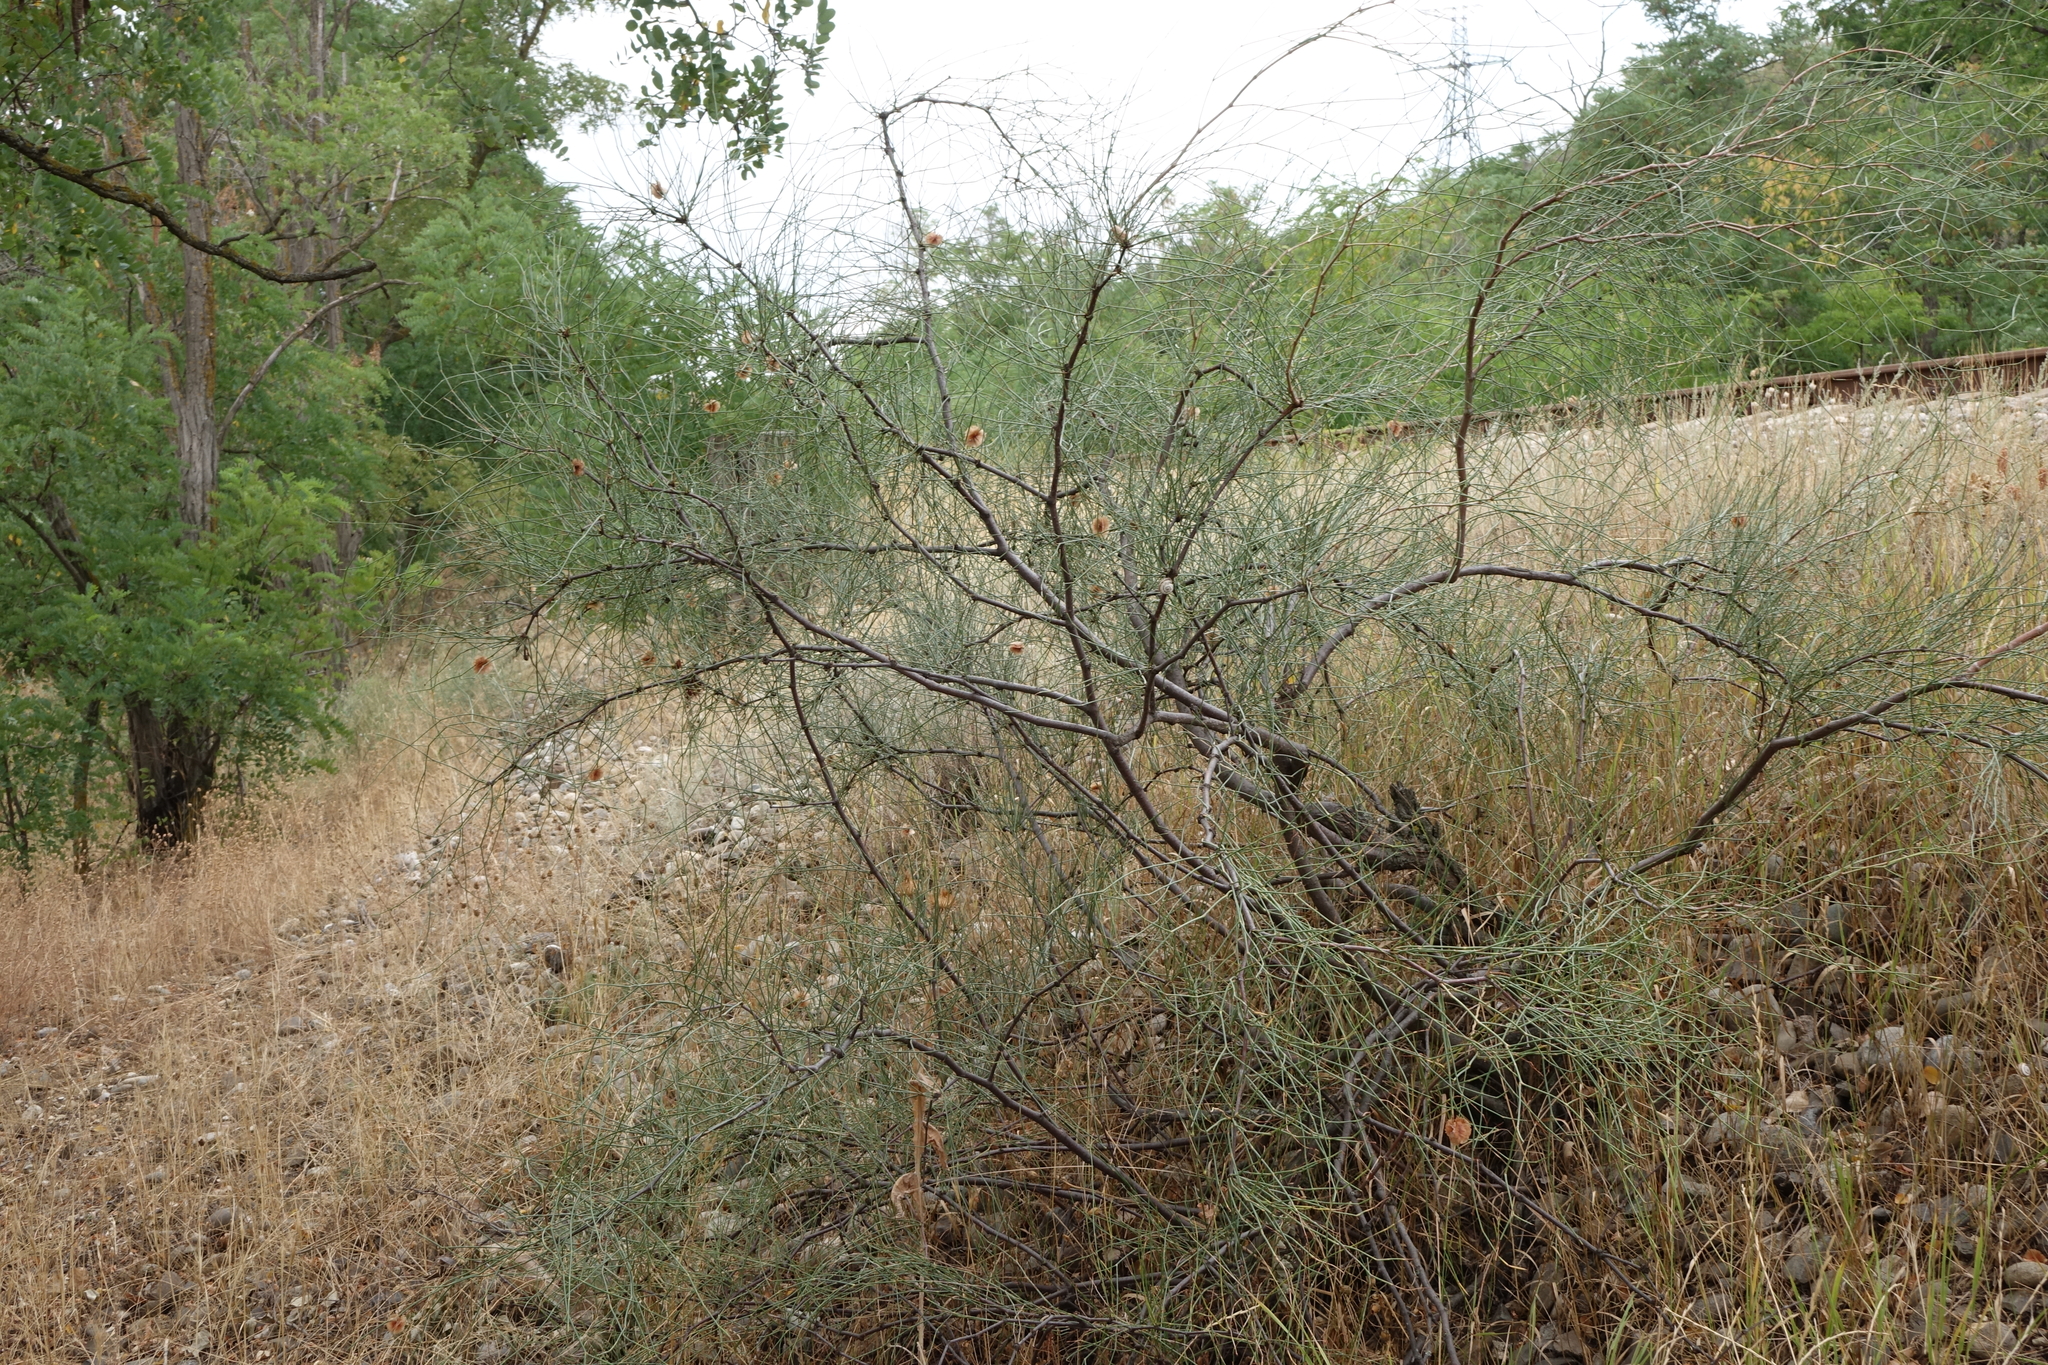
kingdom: Plantae
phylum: Tracheophyta
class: Magnoliopsida
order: Caryophyllales
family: Polygonaceae
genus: Calligonum
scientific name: Calligonum aphyllum
